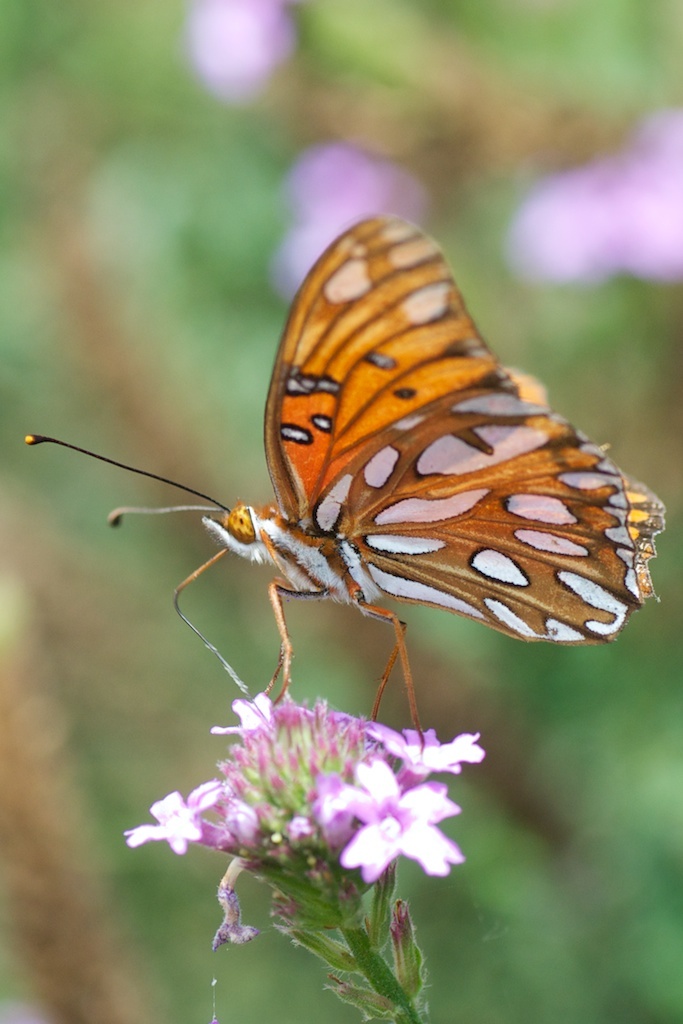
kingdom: Animalia
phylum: Arthropoda
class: Insecta
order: Lepidoptera
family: Nymphalidae
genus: Dione
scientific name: Dione vanillae
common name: Gulf fritillary
